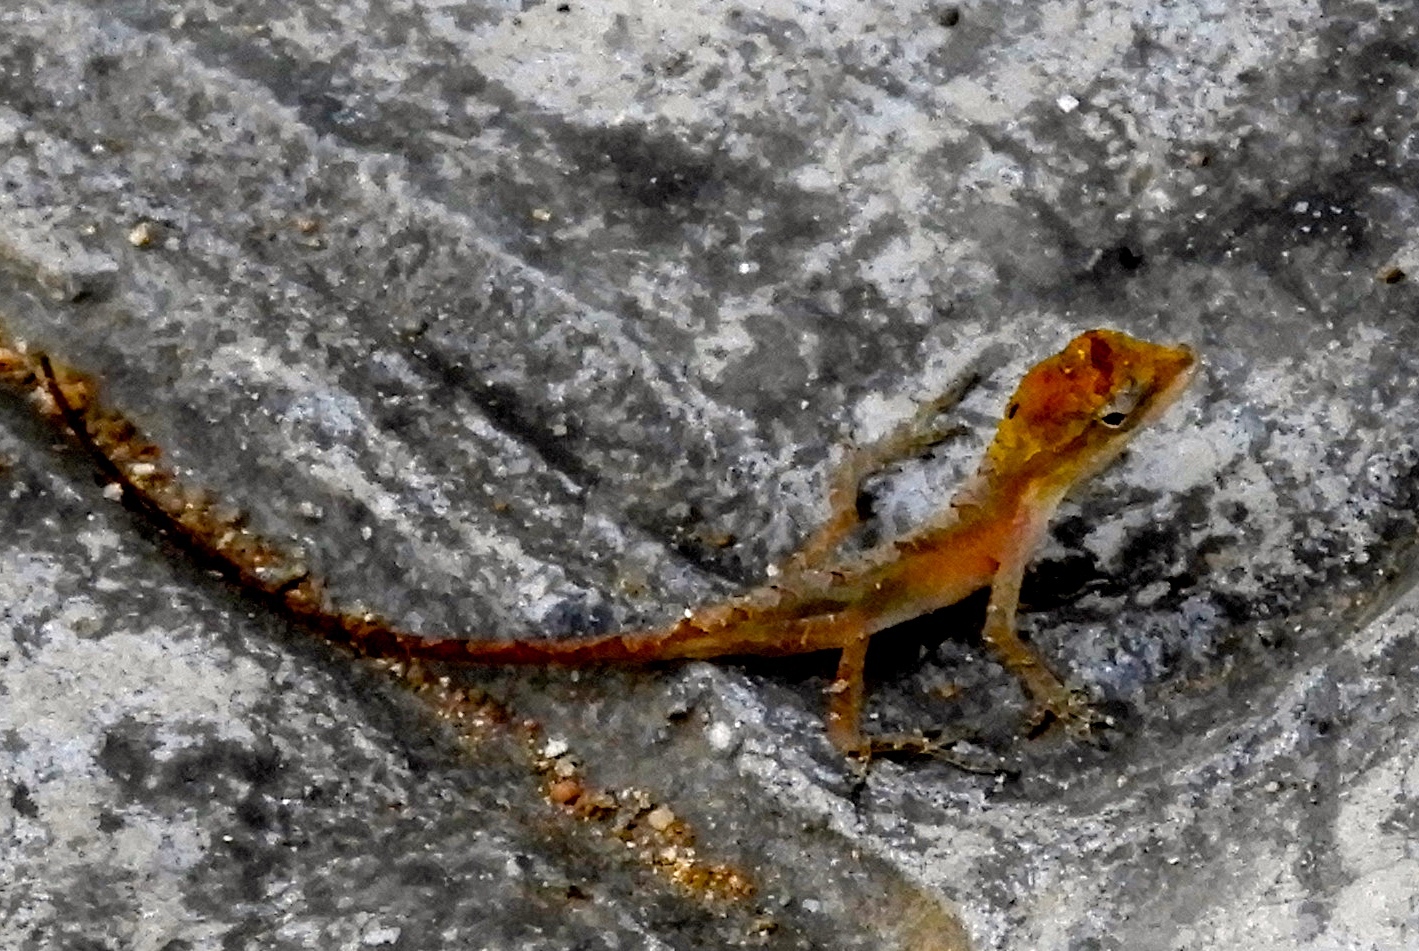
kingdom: Animalia
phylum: Chordata
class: Squamata
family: Dactyloidae
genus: Anolis
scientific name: Anolis nebulosus
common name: Clouded anole
